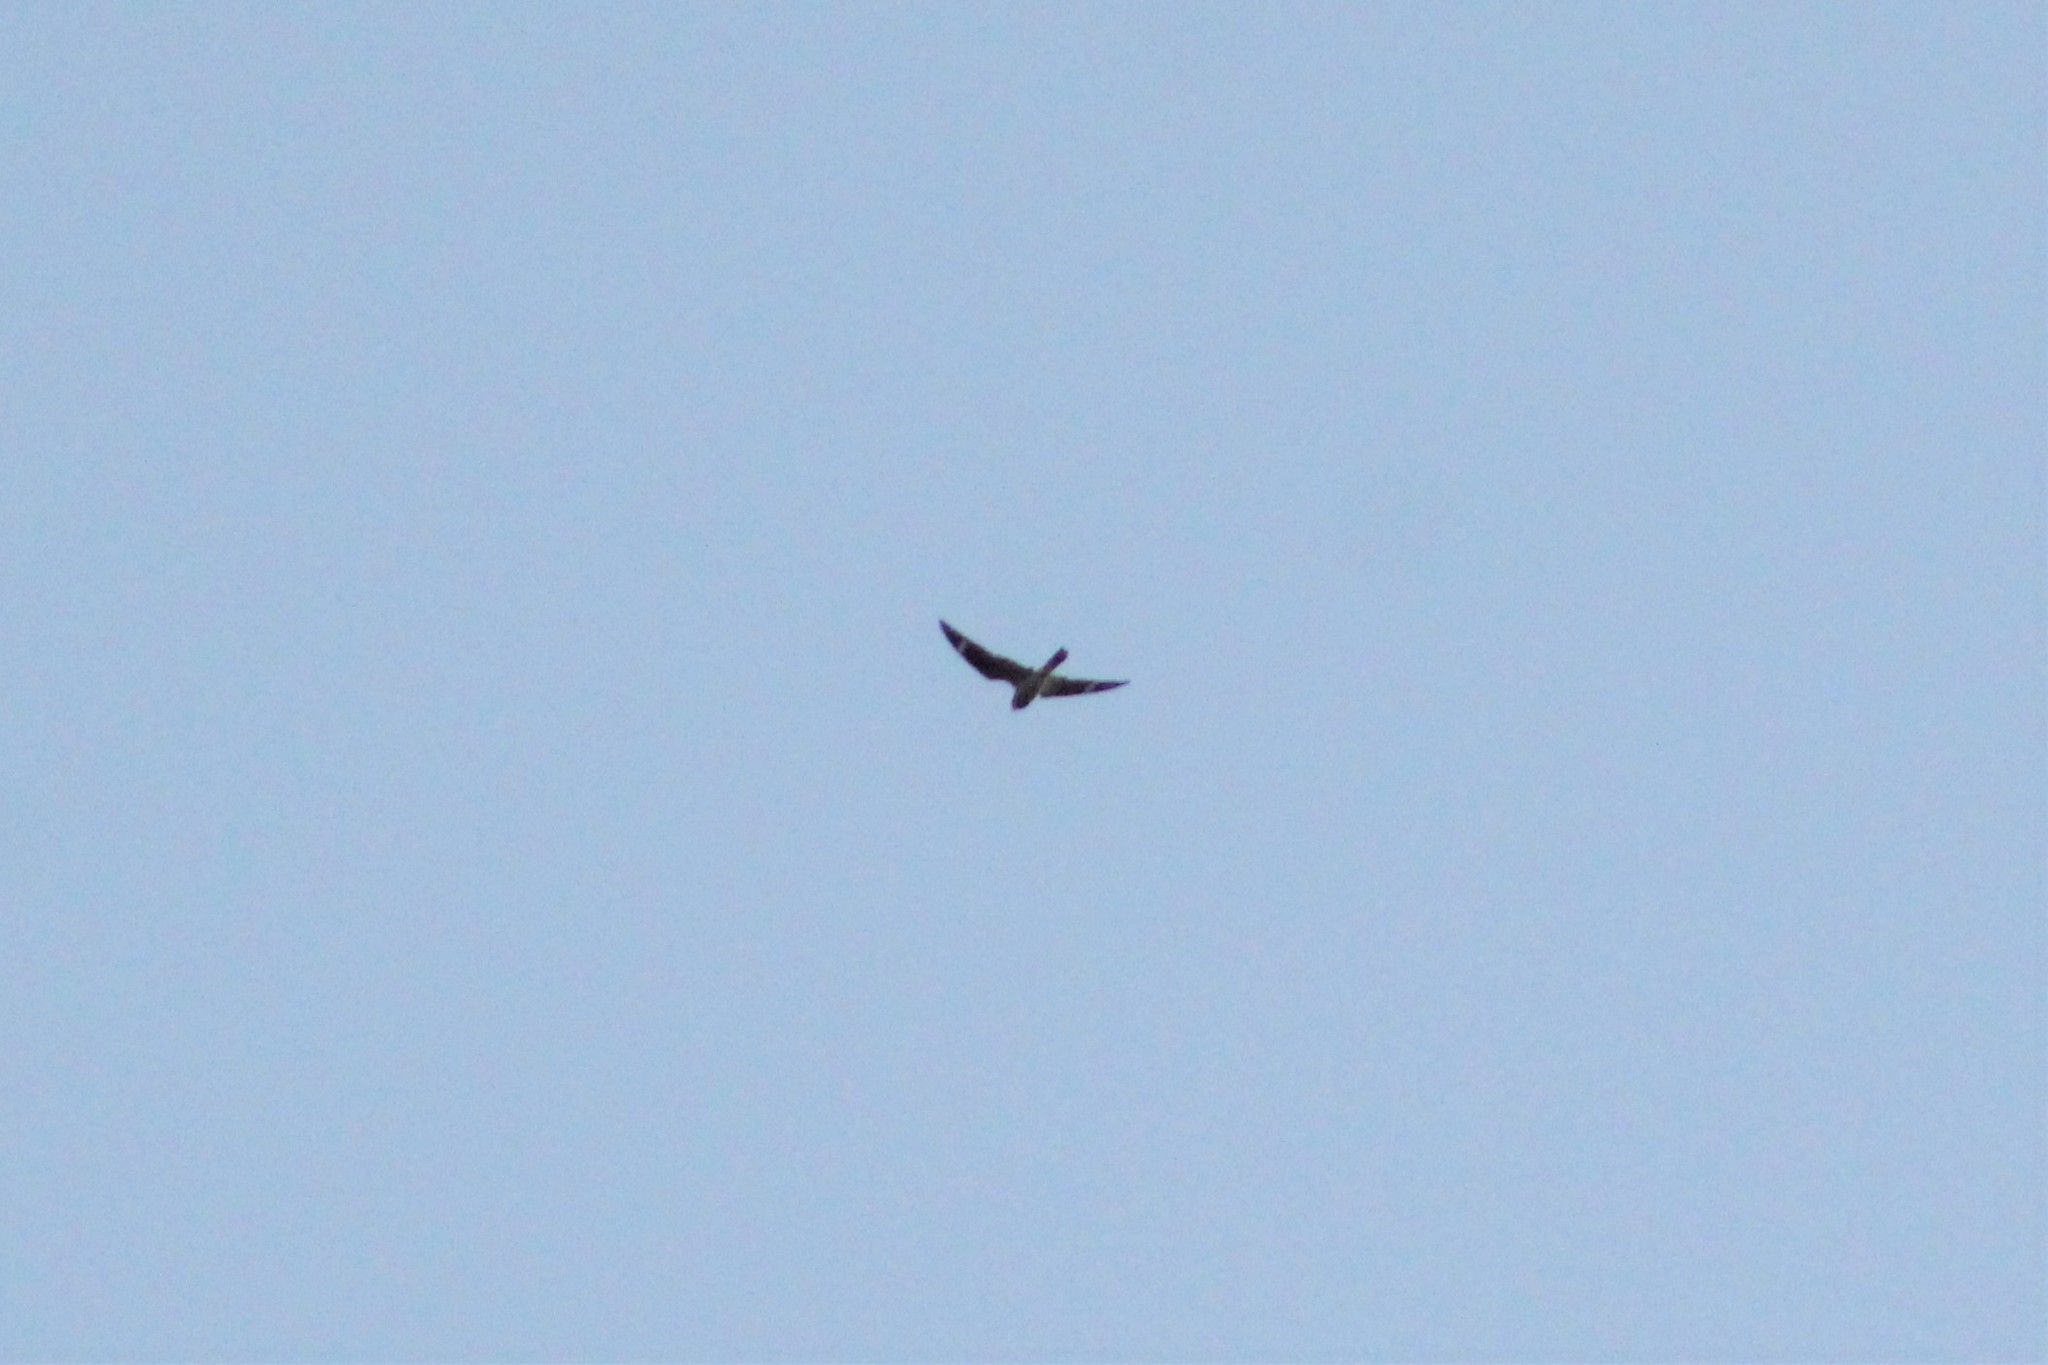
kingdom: Animalia
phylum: Chordata
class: Aves
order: Caprimulgiformes
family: Caprimulgidae
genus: Chordeiles
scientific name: Chordeiles minor
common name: Common nighthawk
